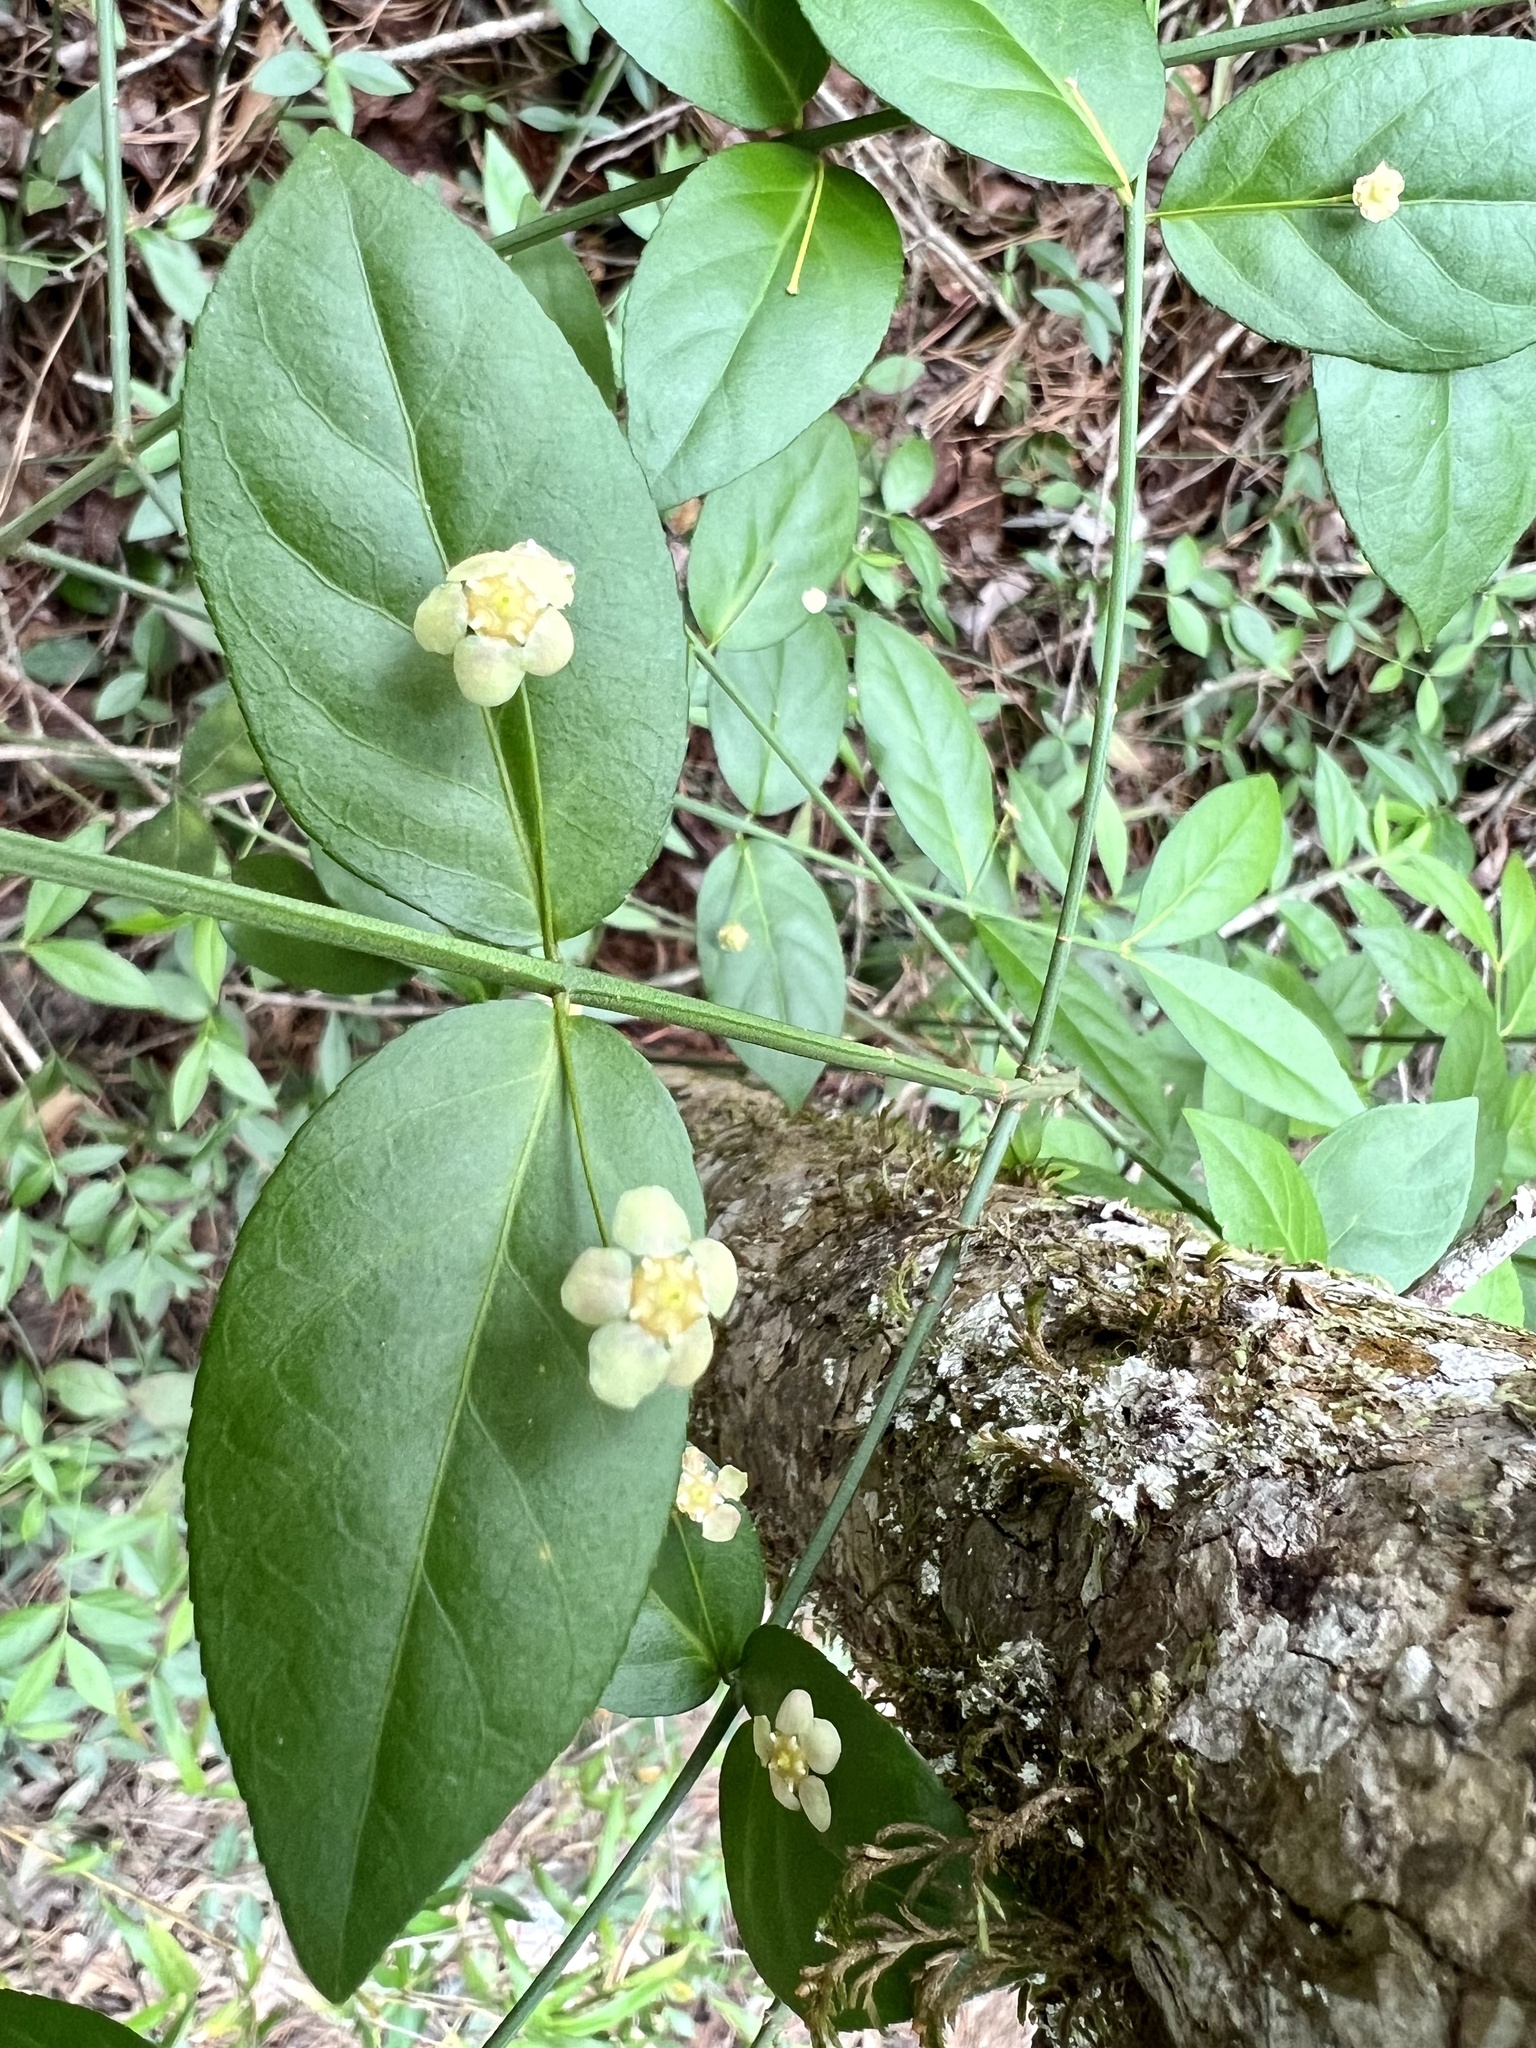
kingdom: Plantae
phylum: Tracheophyta
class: Magnoliopsida
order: Celastrales
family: Celastraceae
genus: Euonymus
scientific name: Euonymus americanus
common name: Bursting-heart
